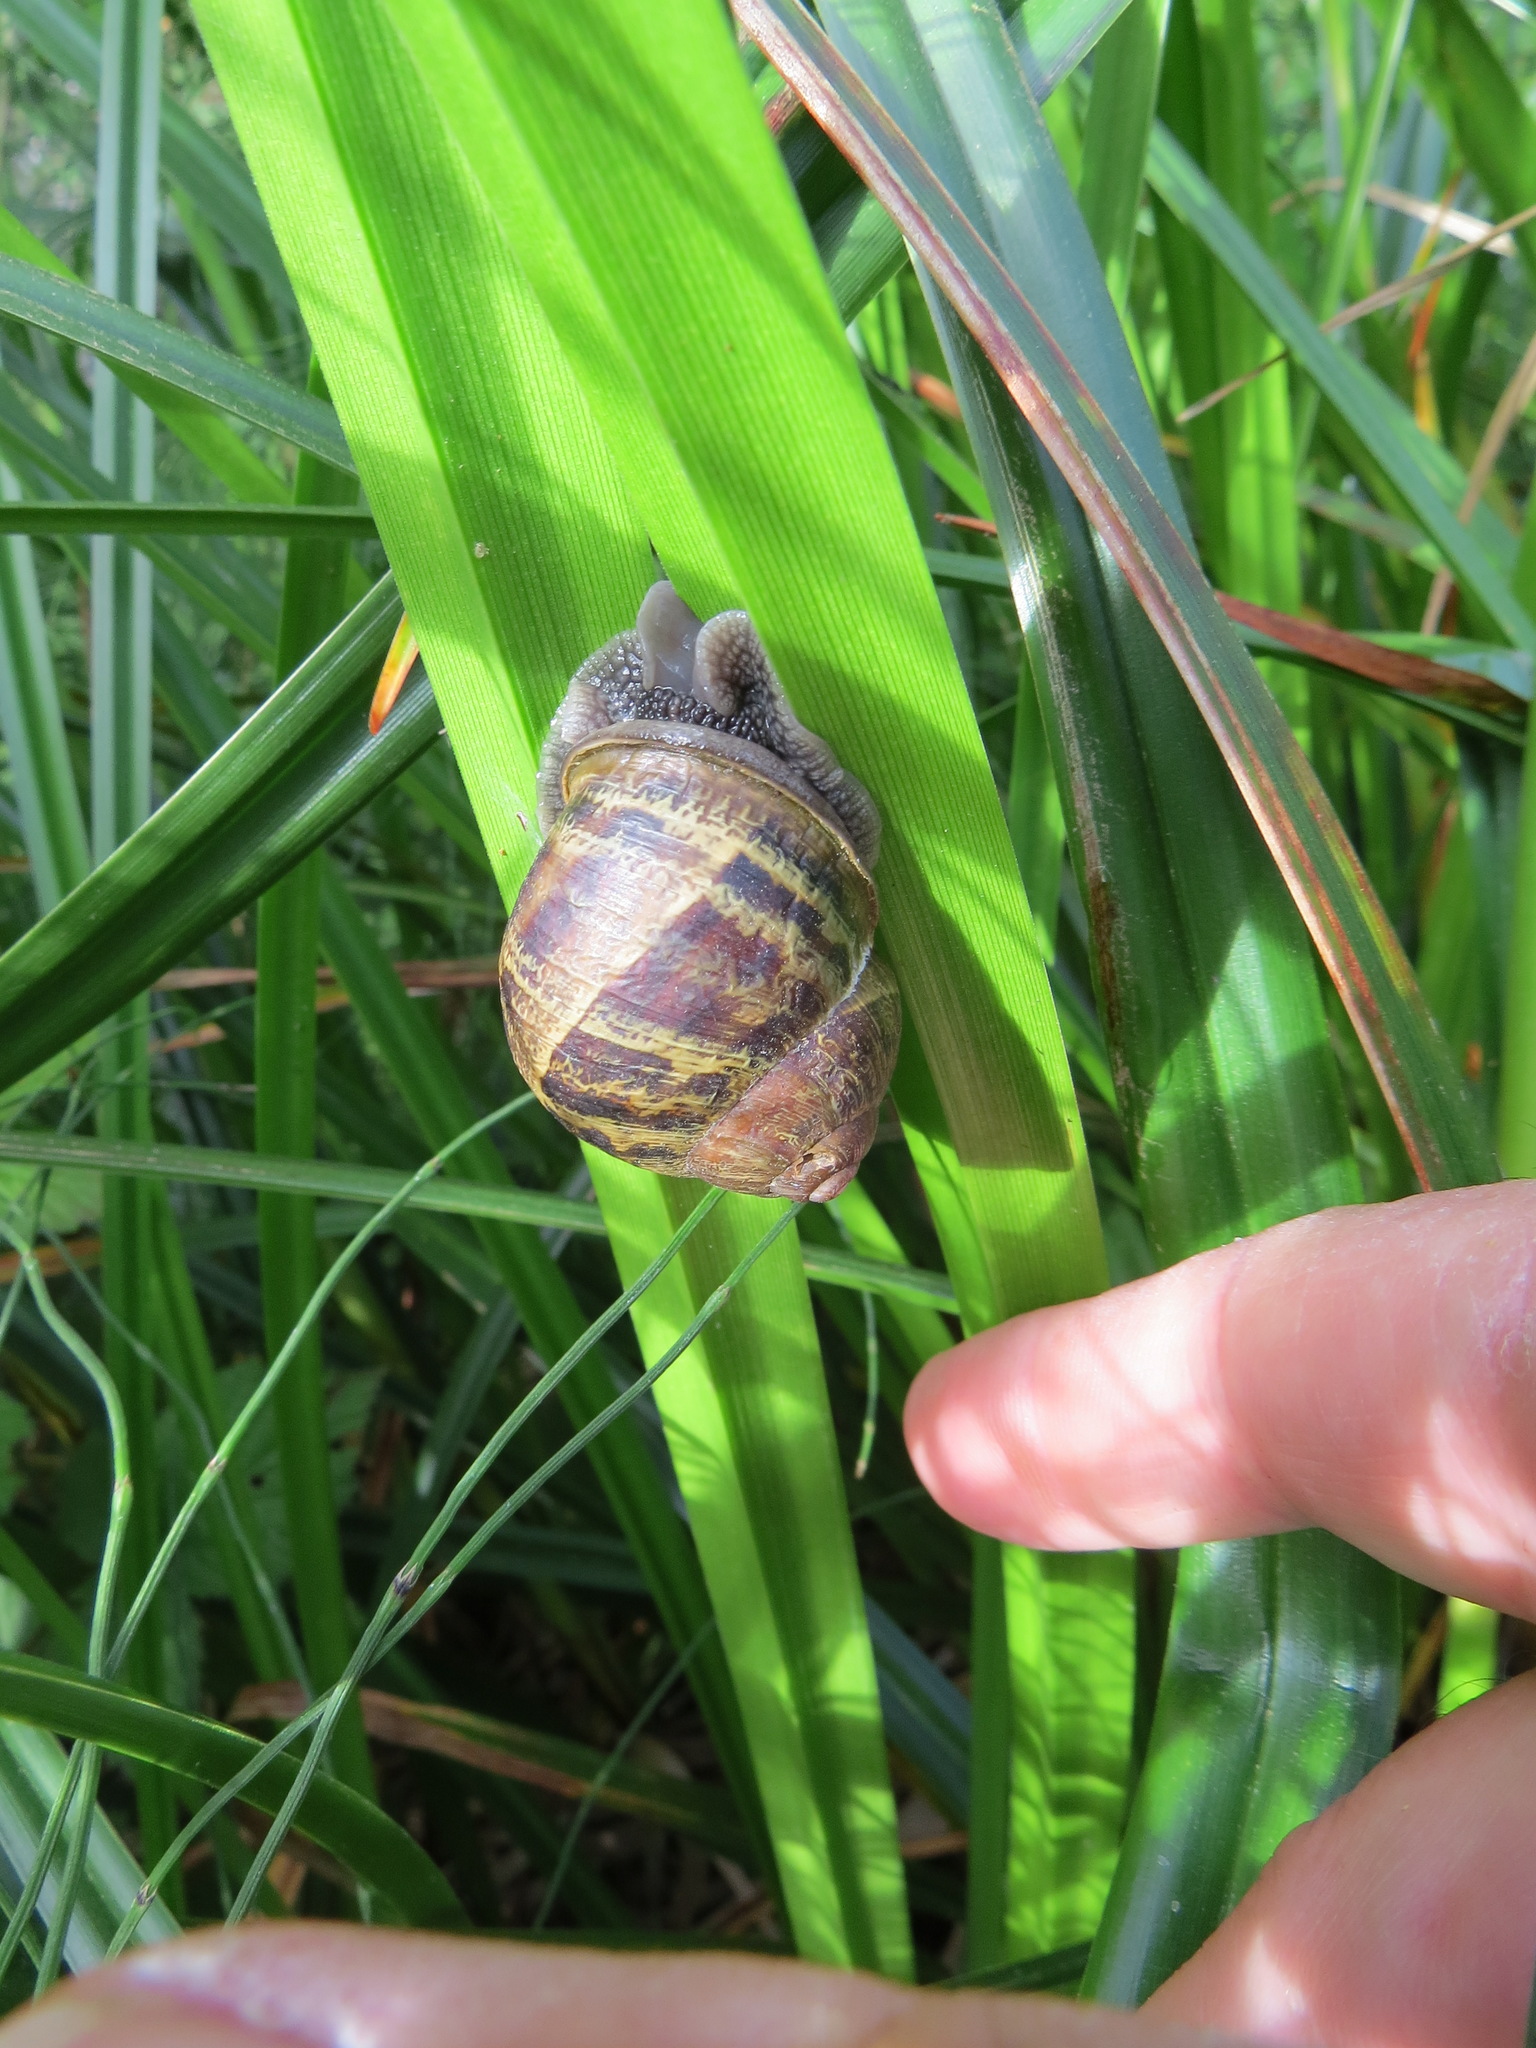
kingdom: Animalia
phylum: Mollusca
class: Gastropoda
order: Stylommatophora
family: Helicidae
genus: Cornu
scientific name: Cornu aspersum
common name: Brown garden snail
